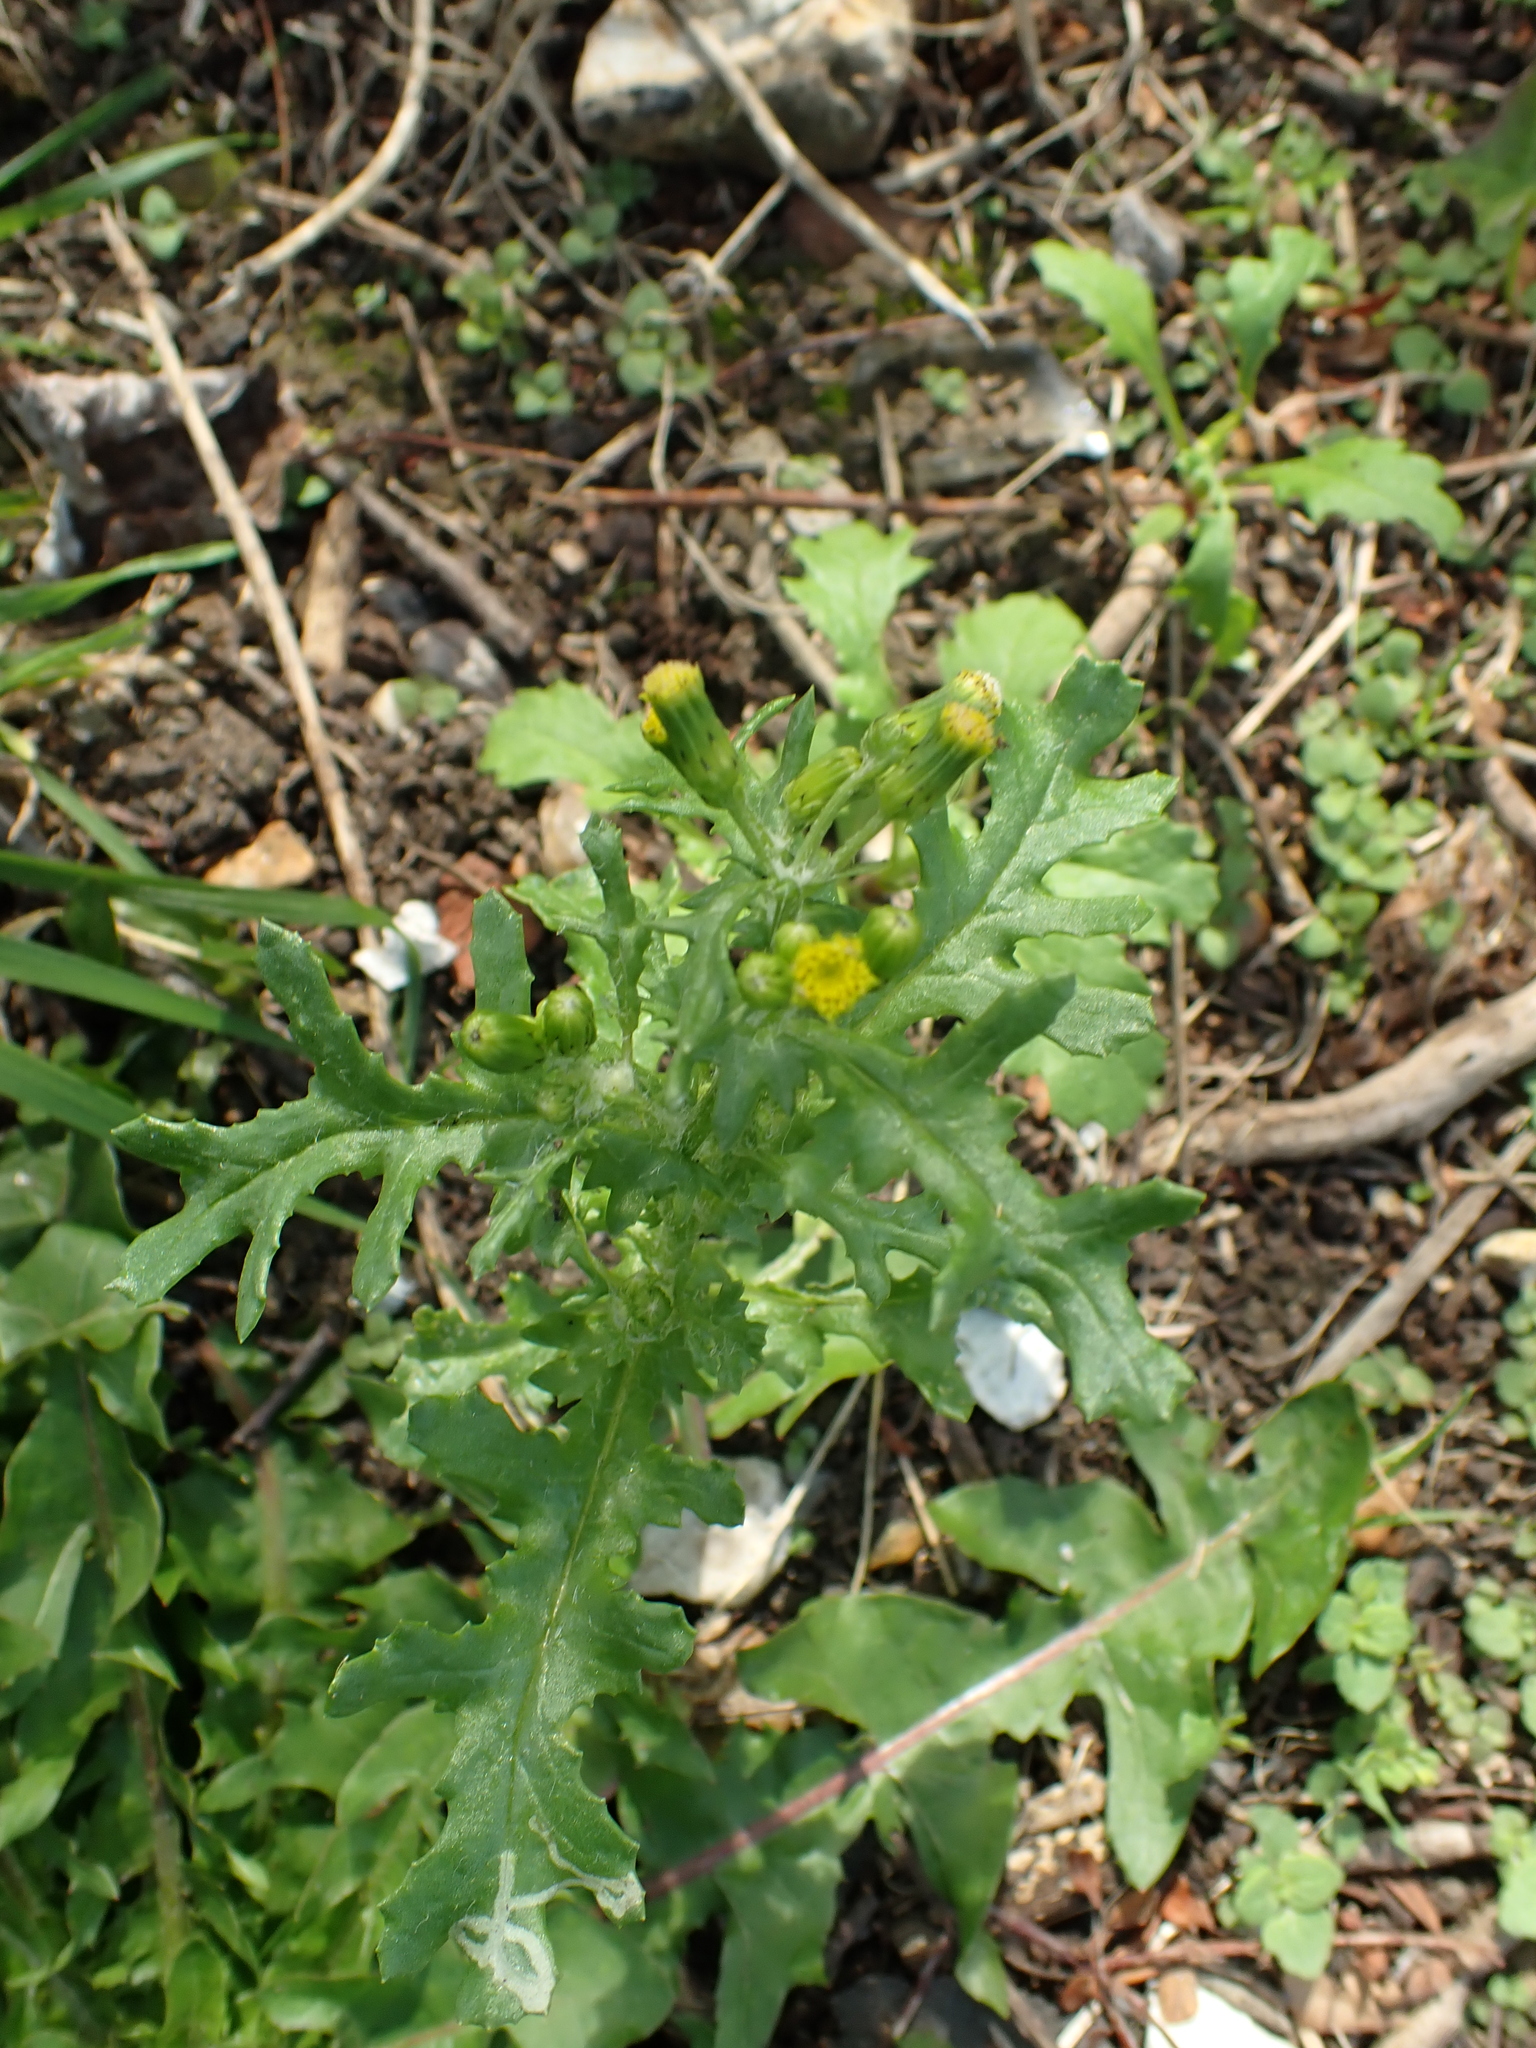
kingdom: Plantae
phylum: Tracheophyta
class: Magnoliopsida
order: Asterales
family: Asteraceae
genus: Senecio
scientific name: Senecio vulgaris
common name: Old-man-in-the-spring
